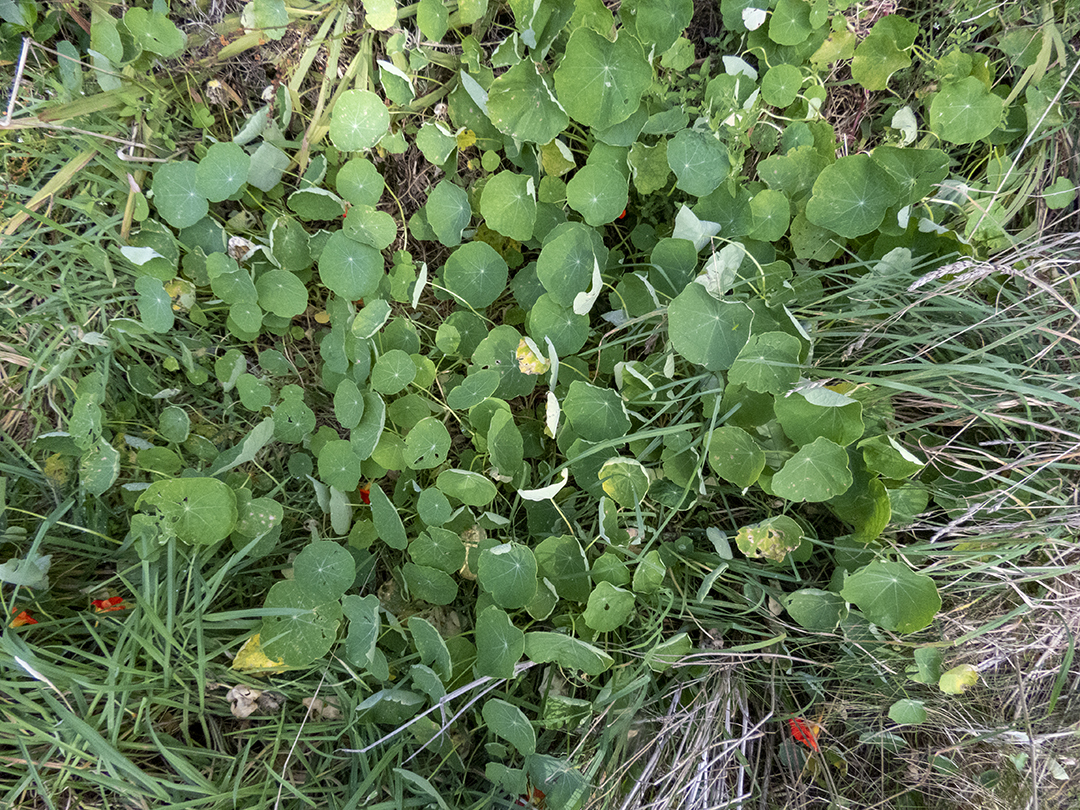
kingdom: Plantae
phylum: Tracheophyta
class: Magnoliopsida
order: Brassicales
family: Tropaeolaceae
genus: Tropaeolum
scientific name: Tropaeolum majus
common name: Nasturtium
